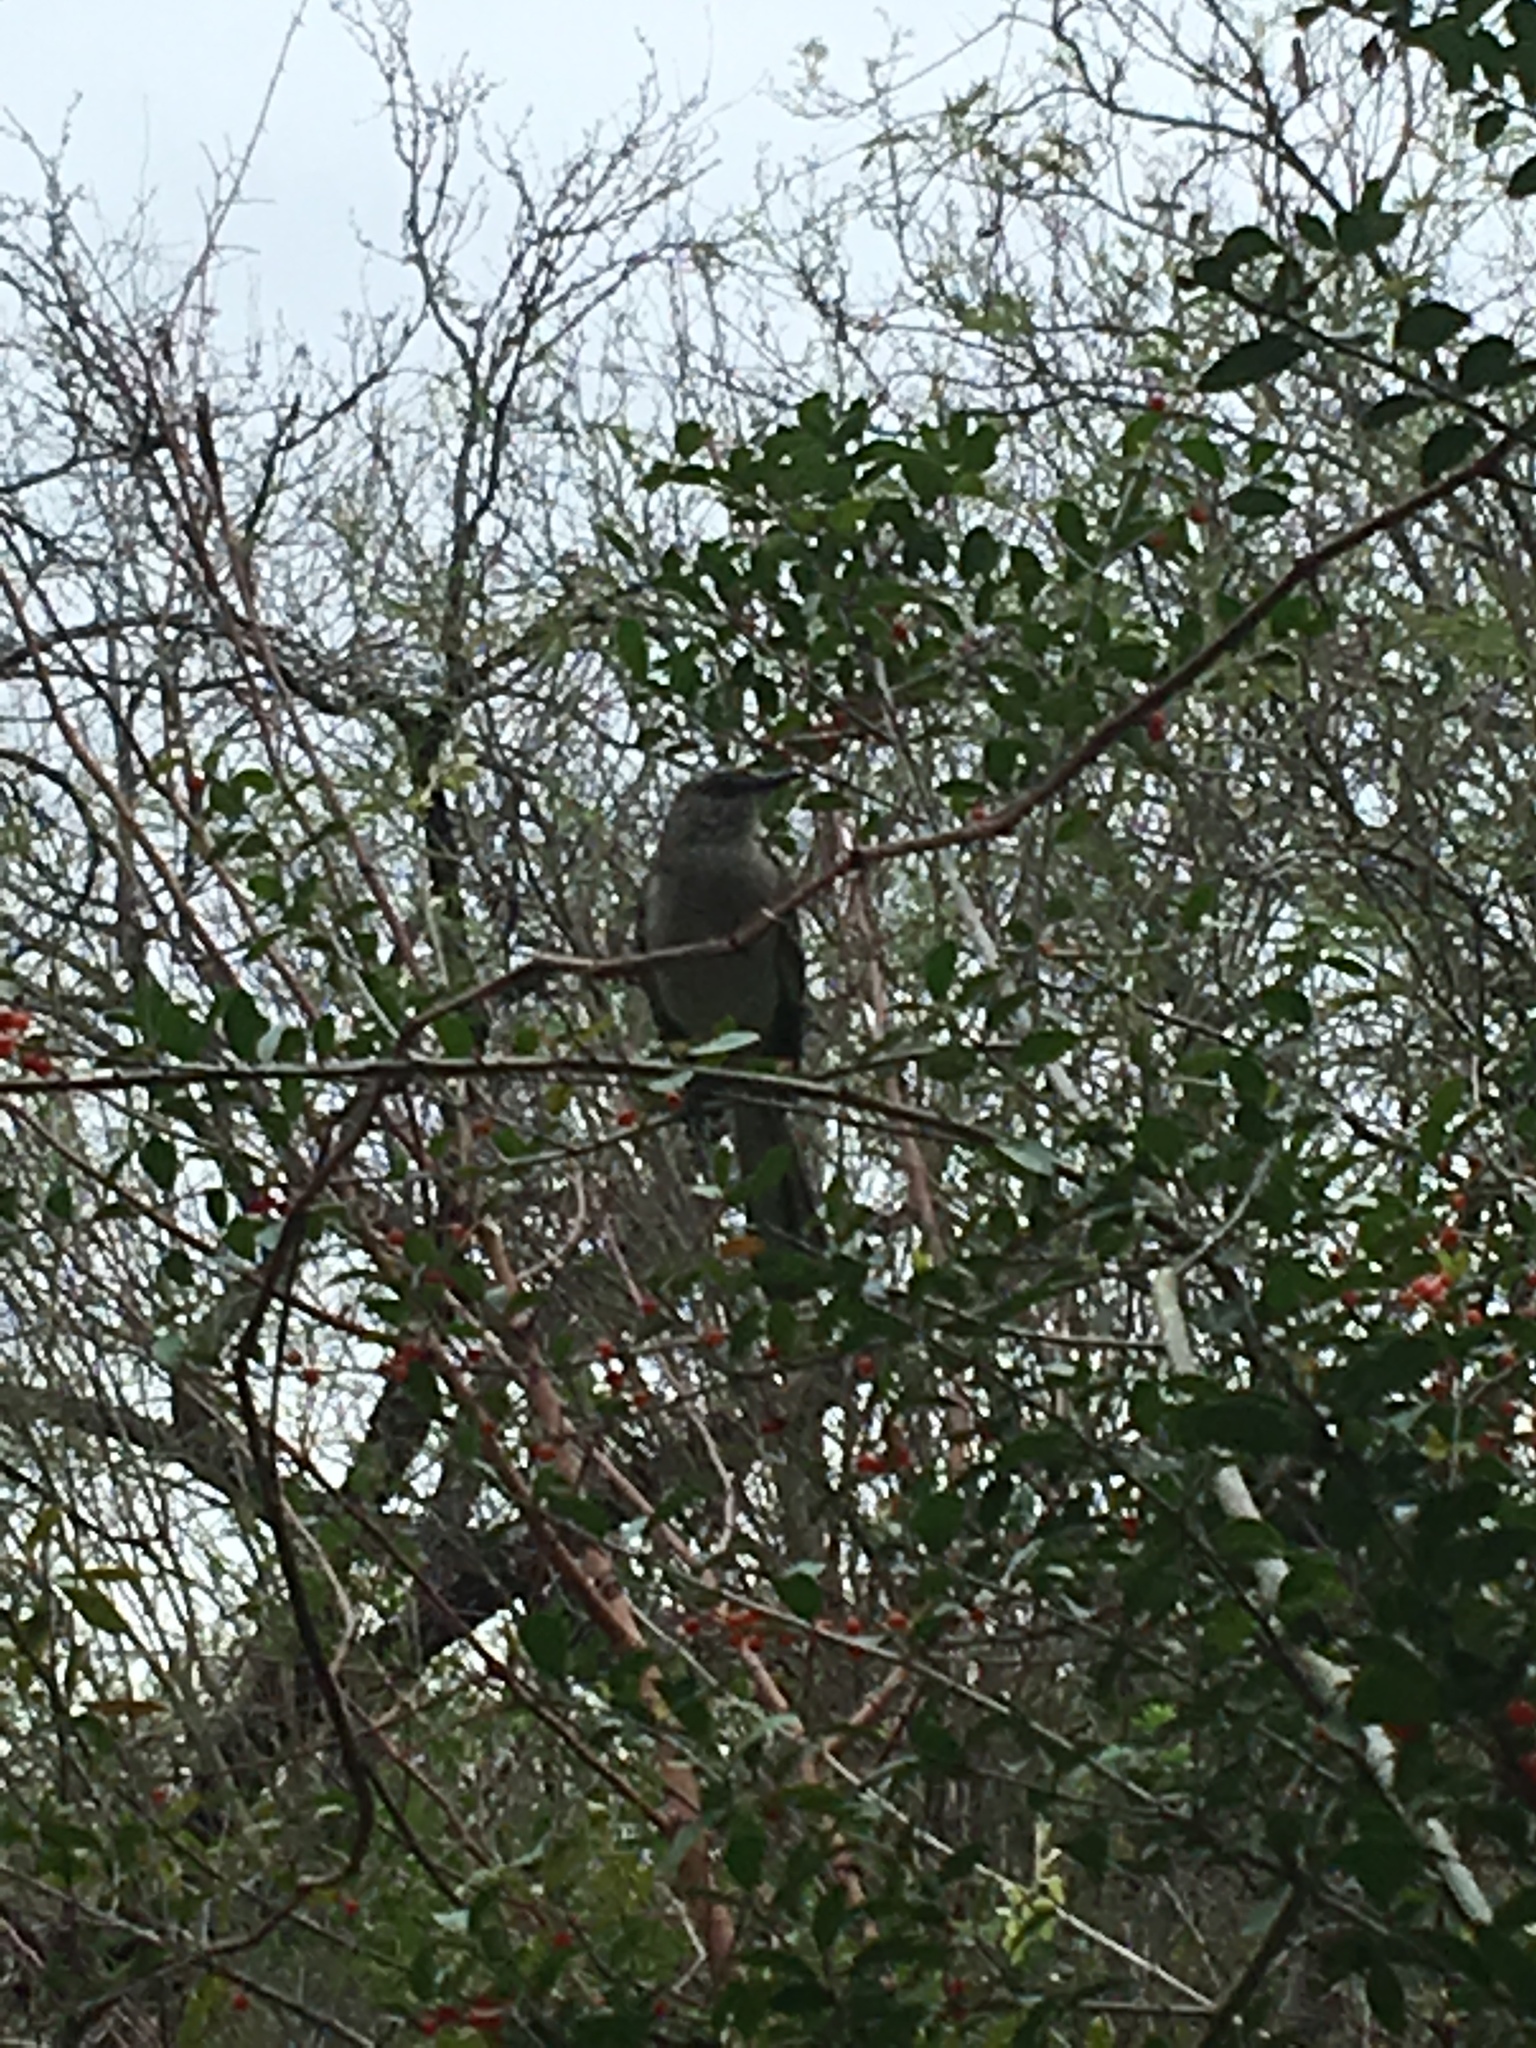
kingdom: Animalia
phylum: Chordata
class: Aves
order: Passeriformes
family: Mimidae
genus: Mimus
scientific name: Mimus polyglottos
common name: Northern mockingbird
